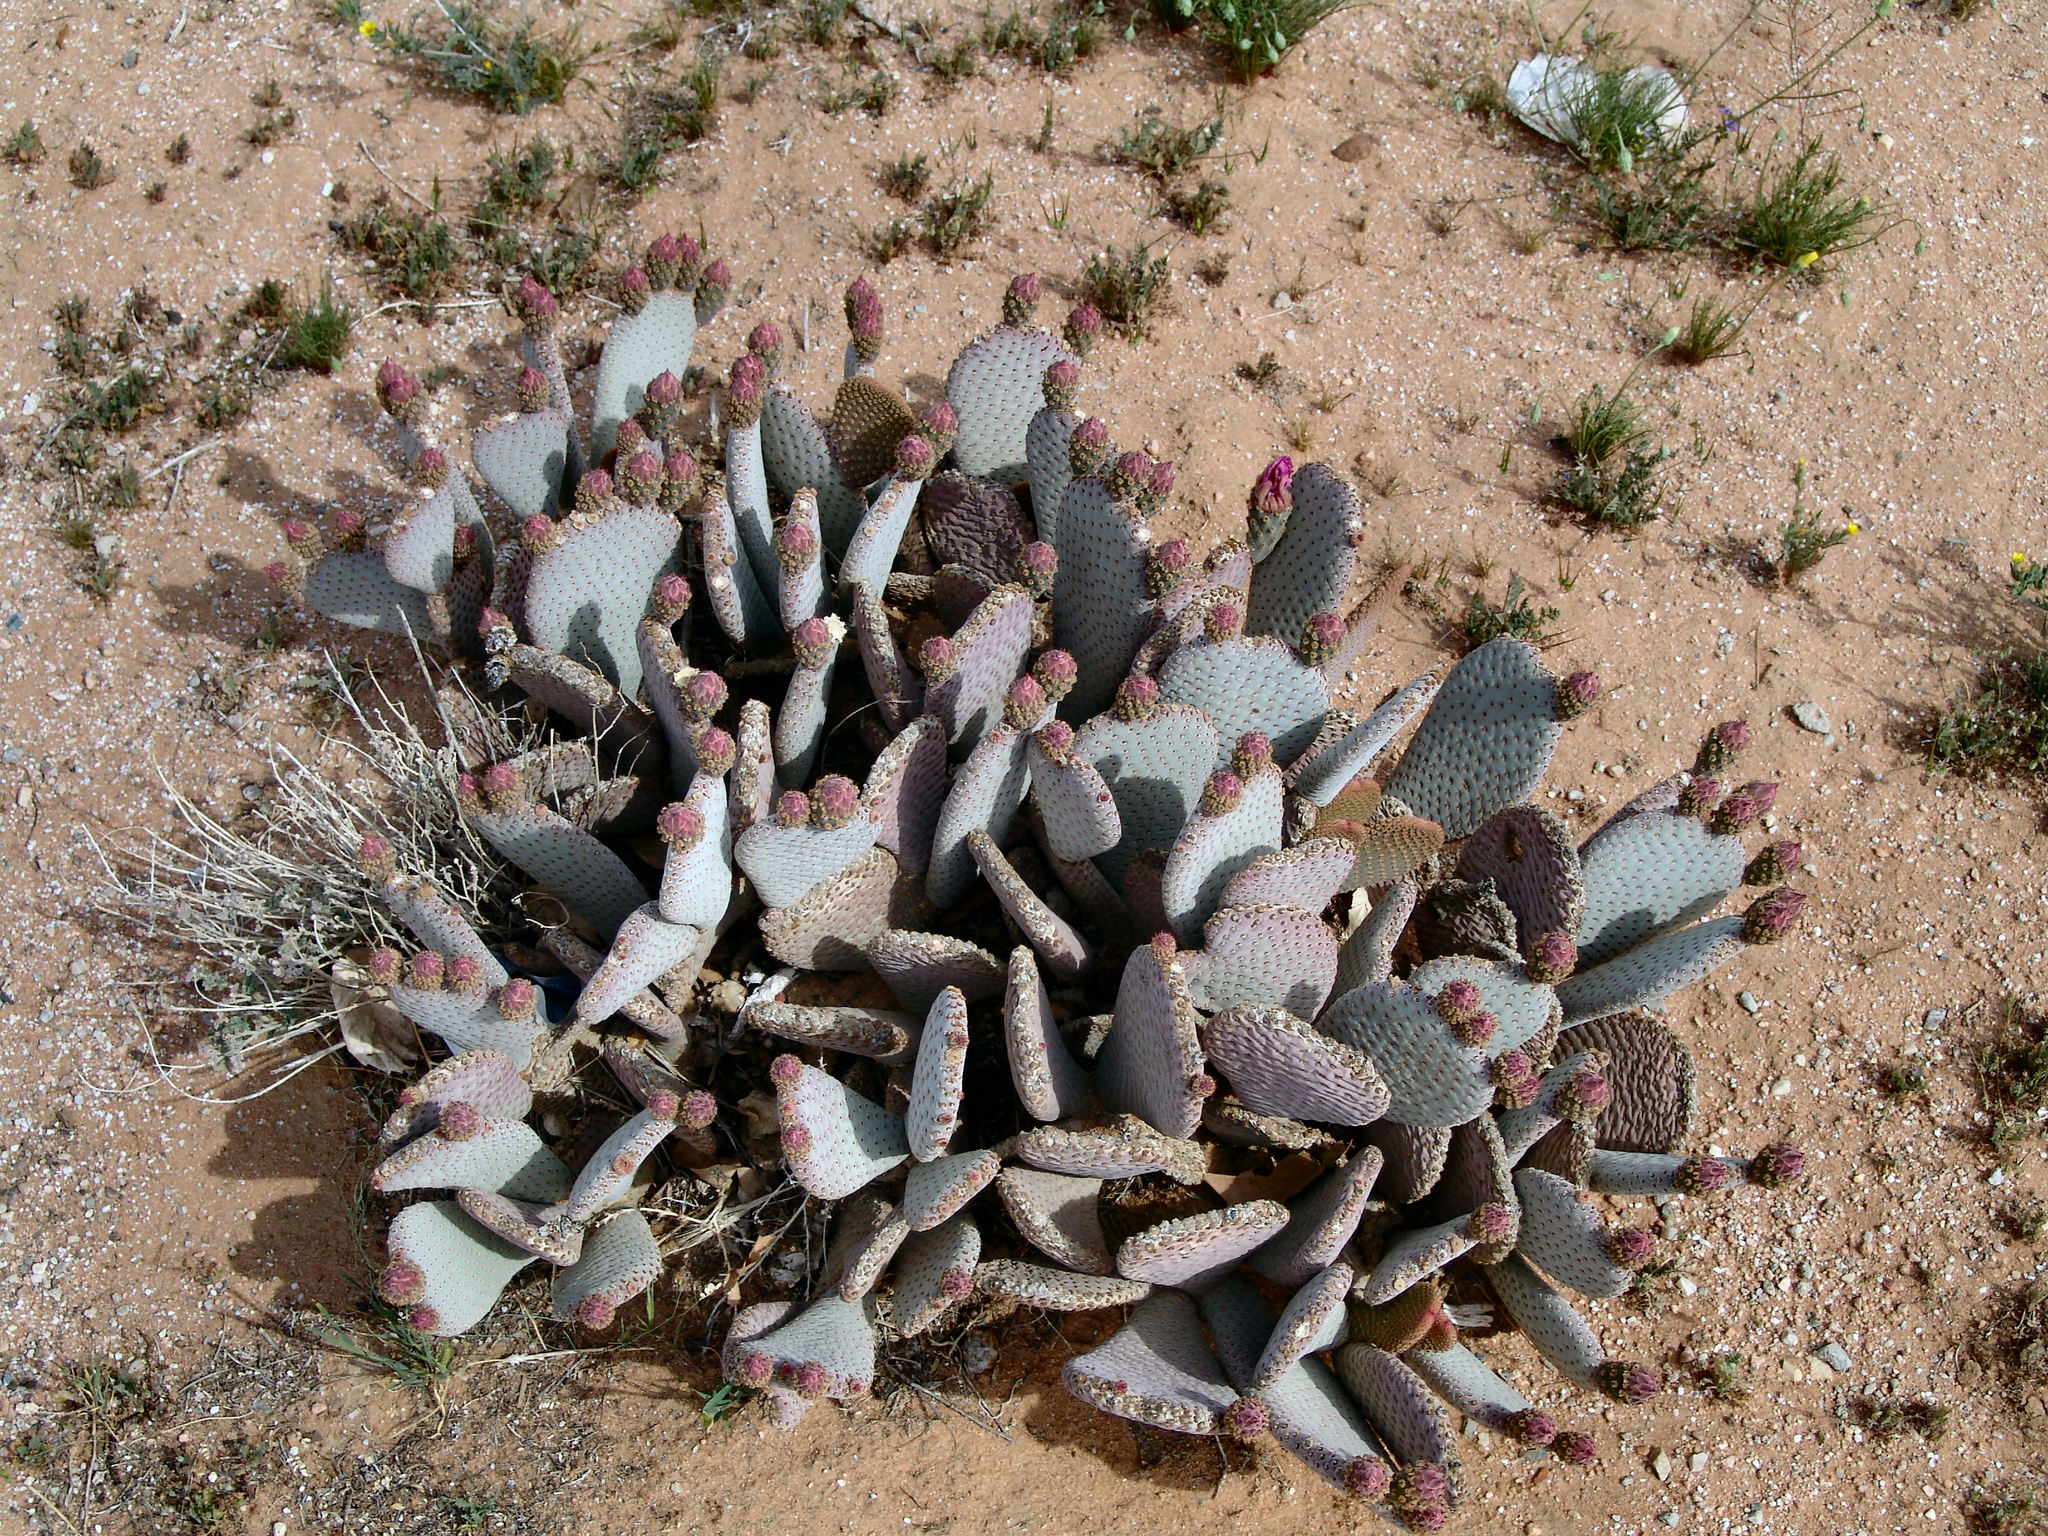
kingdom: Plantae
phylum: Tracheophyta
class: Magnoliopsida
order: Caryophyllales
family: Cactaceae
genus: Opuntia
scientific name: Opuntia basilaris
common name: Beavertail prickly-pear
